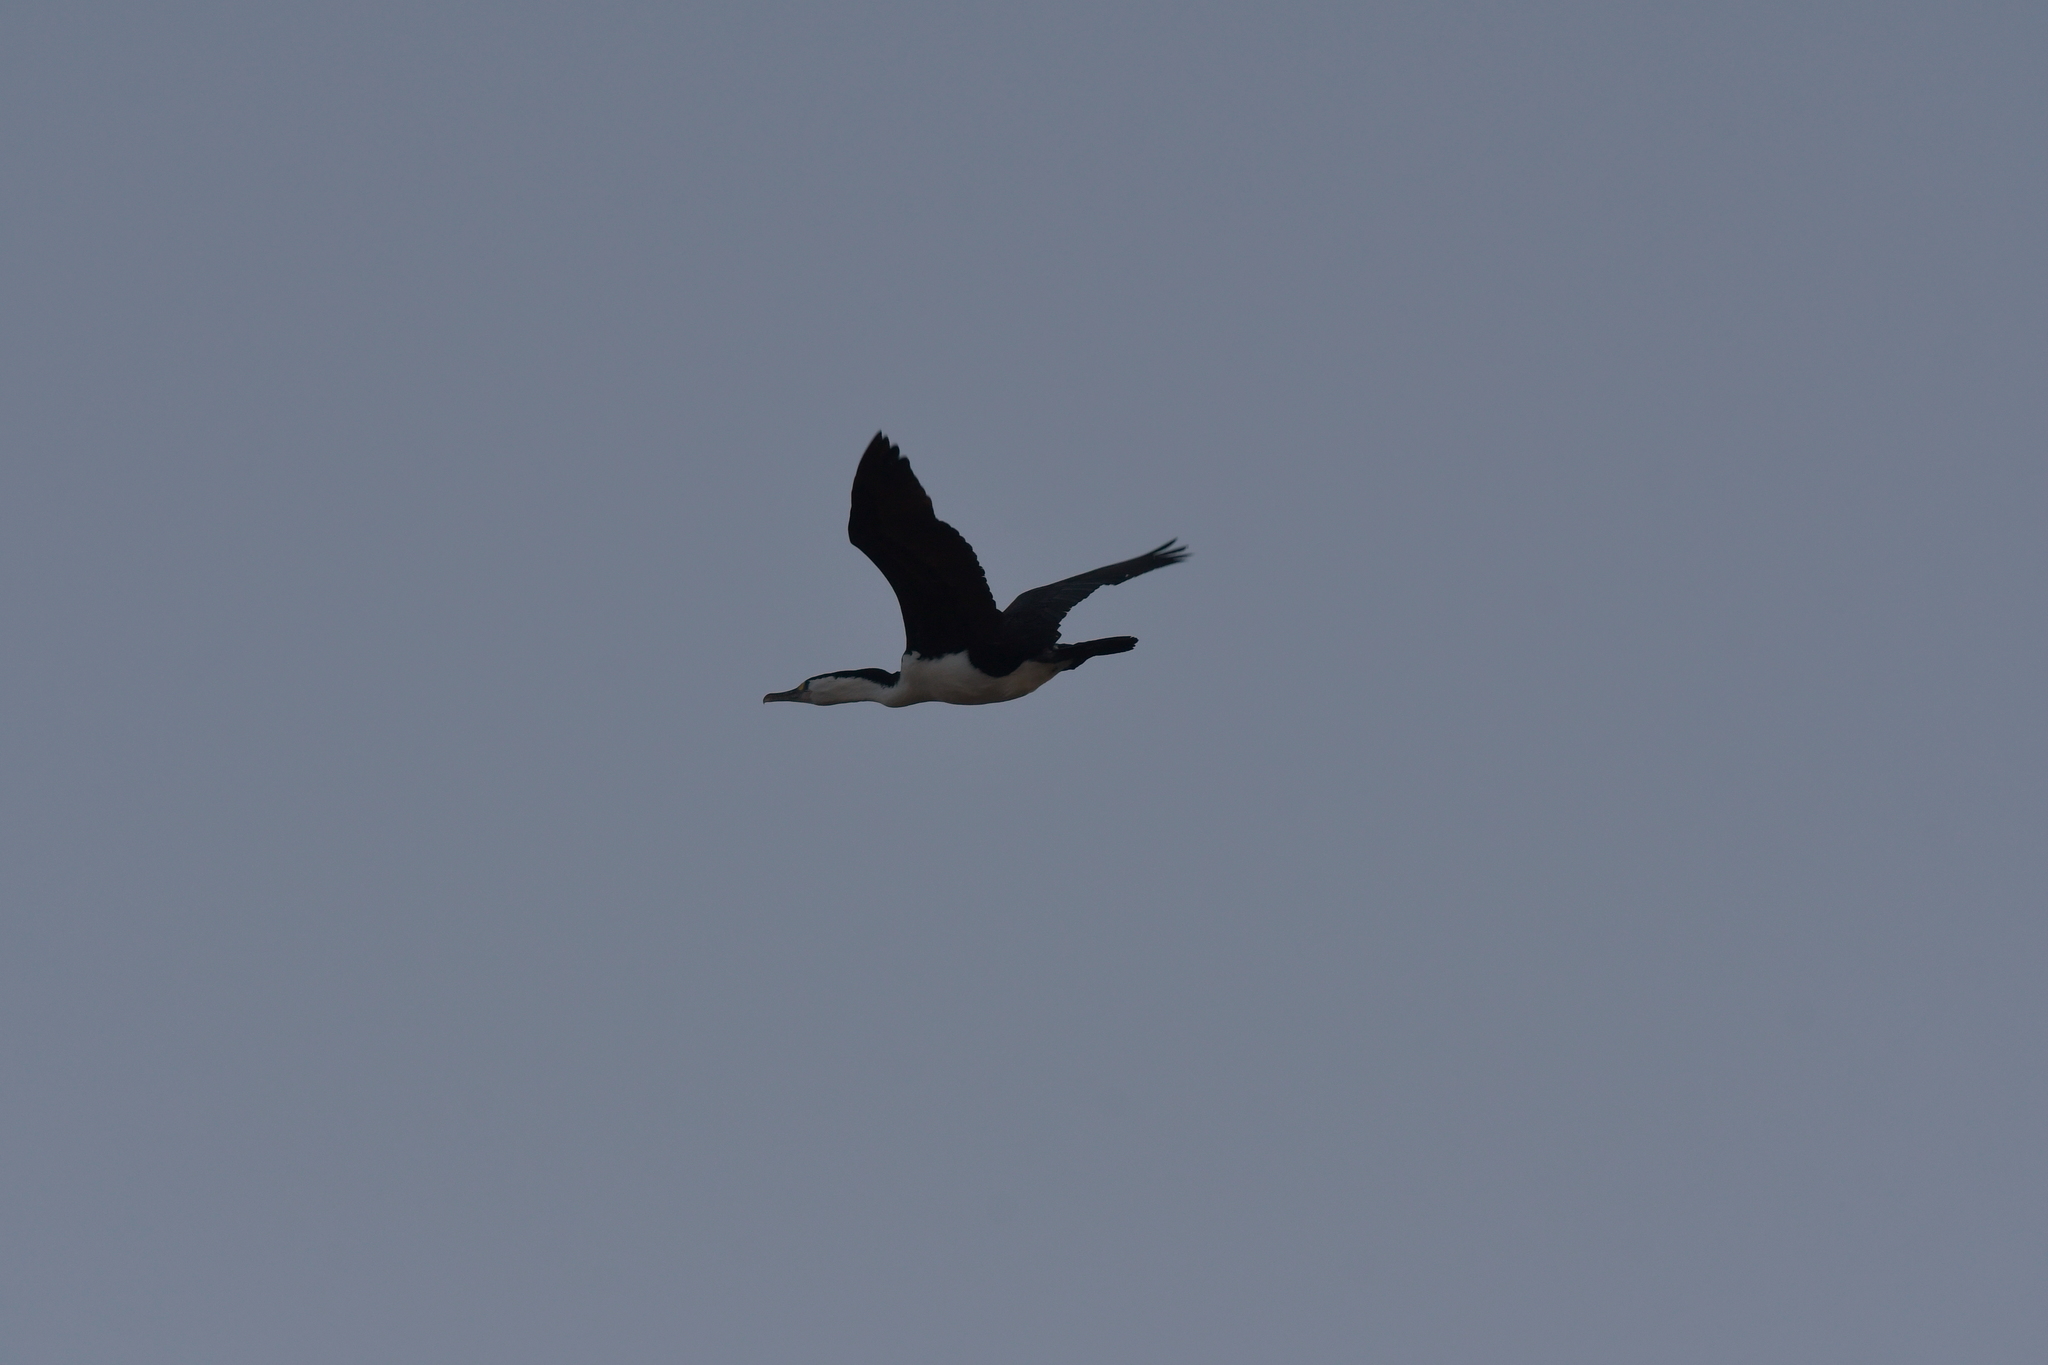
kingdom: Animalia
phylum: Chordata
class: Aves
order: Suliformes
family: Phalacrocoracidae
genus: Phalacrocorax
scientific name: Phalacrocorax varius
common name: Pied cormorant
